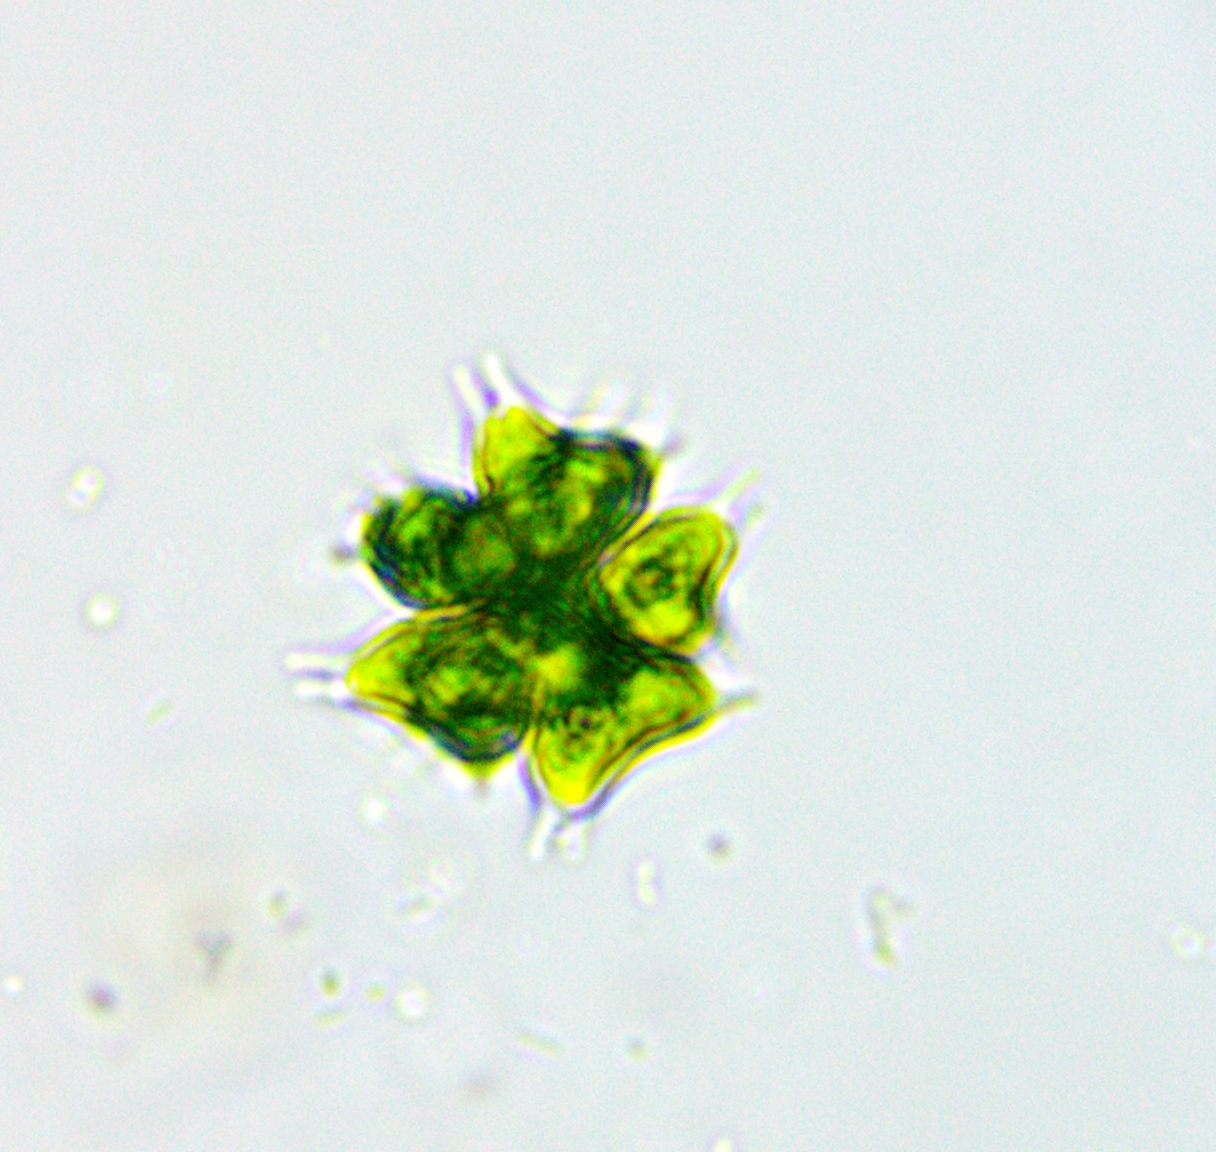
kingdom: Plantae
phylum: Chlorophyta
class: Chlorophyceae
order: Sphaeropleales
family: Hydrodictyaceae
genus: Sorastrum
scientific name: Sorastrum spinulosum
